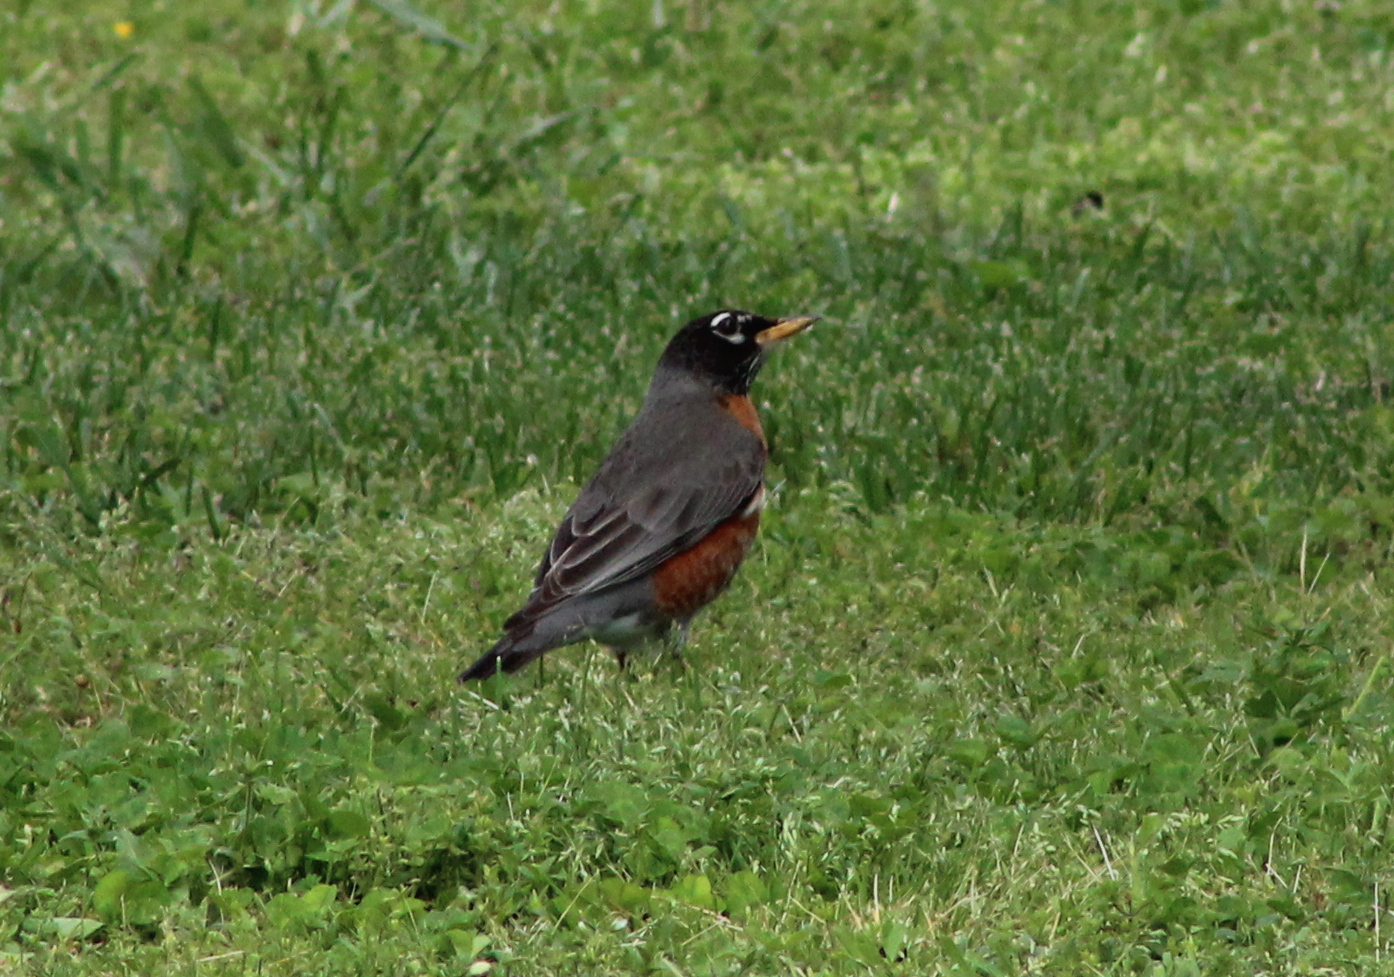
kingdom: Animalia
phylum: Chordata
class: Aves
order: Passeriformes
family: Turdidae
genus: Turdus
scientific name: Turdus migratorius
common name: American robin
